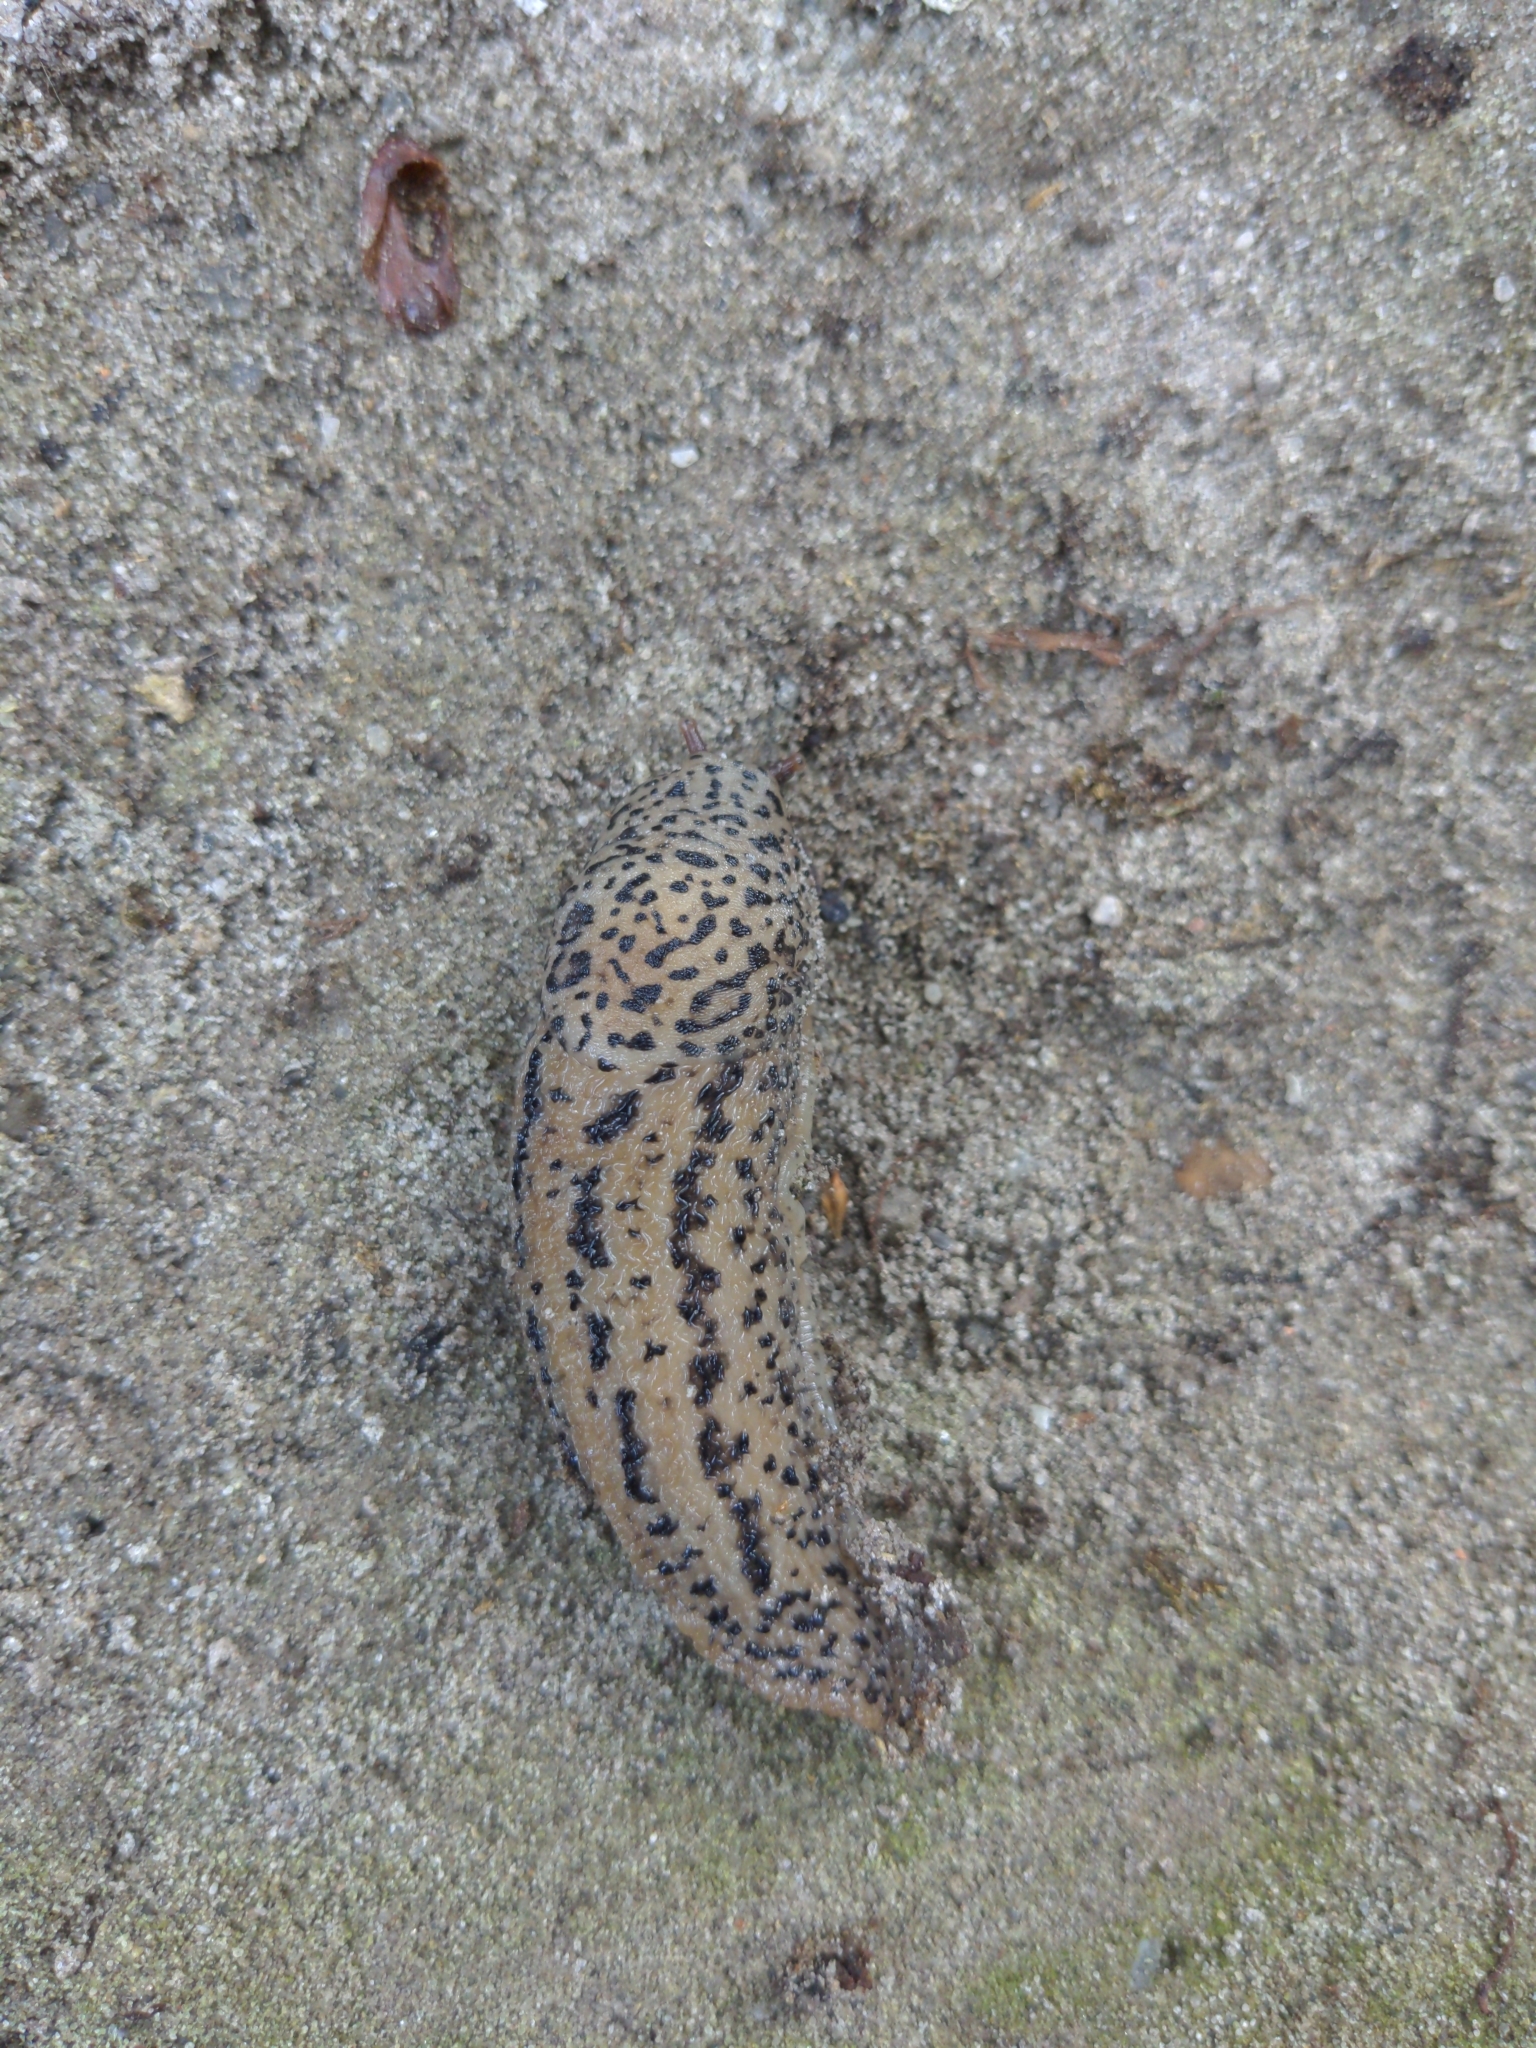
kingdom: Animalia
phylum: Mollusca
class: Gastropoda
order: Stylommatophora
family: Limacidae
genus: Limax
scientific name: Limax maximus
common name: Great grey slug
